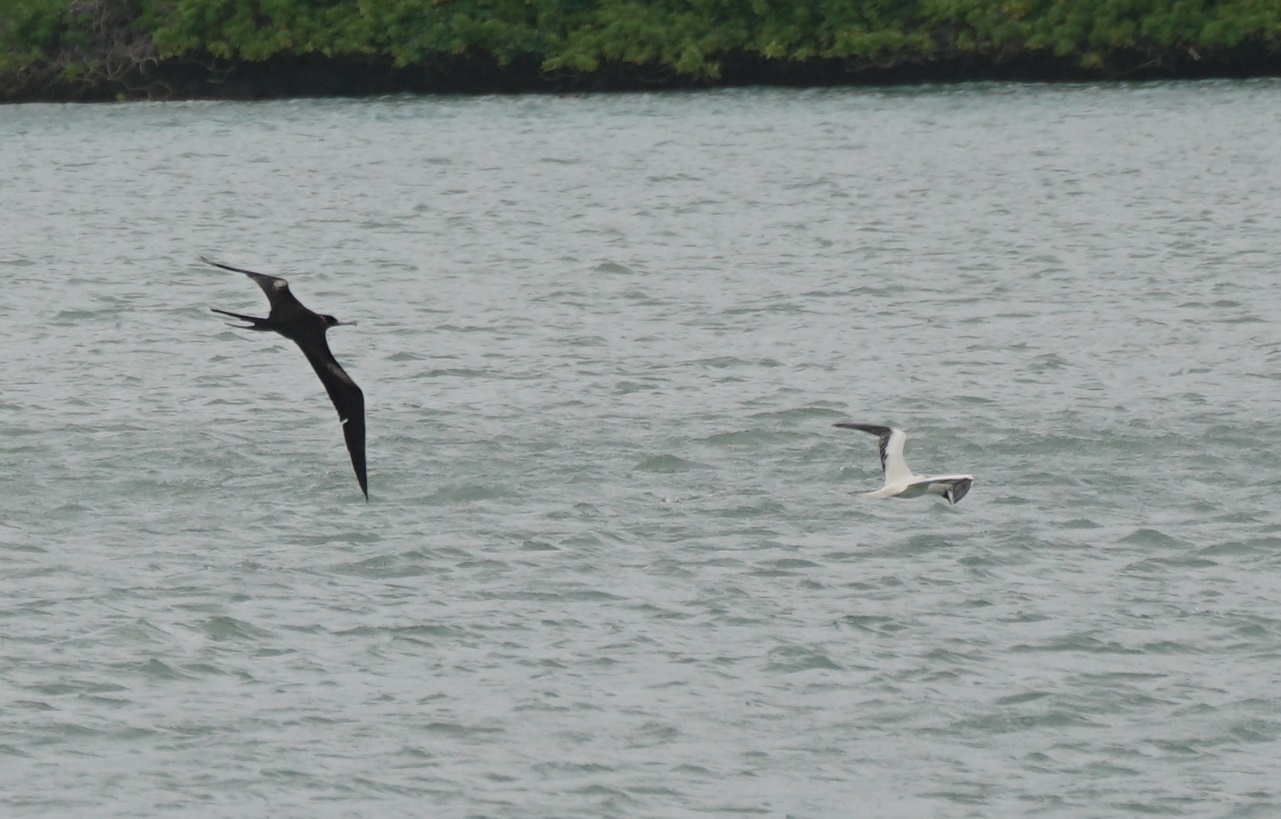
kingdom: Animalia
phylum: Chordata
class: Aves
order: Suliformes
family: Sulidae
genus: Sula
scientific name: Sula sula
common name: Red-footed booby
